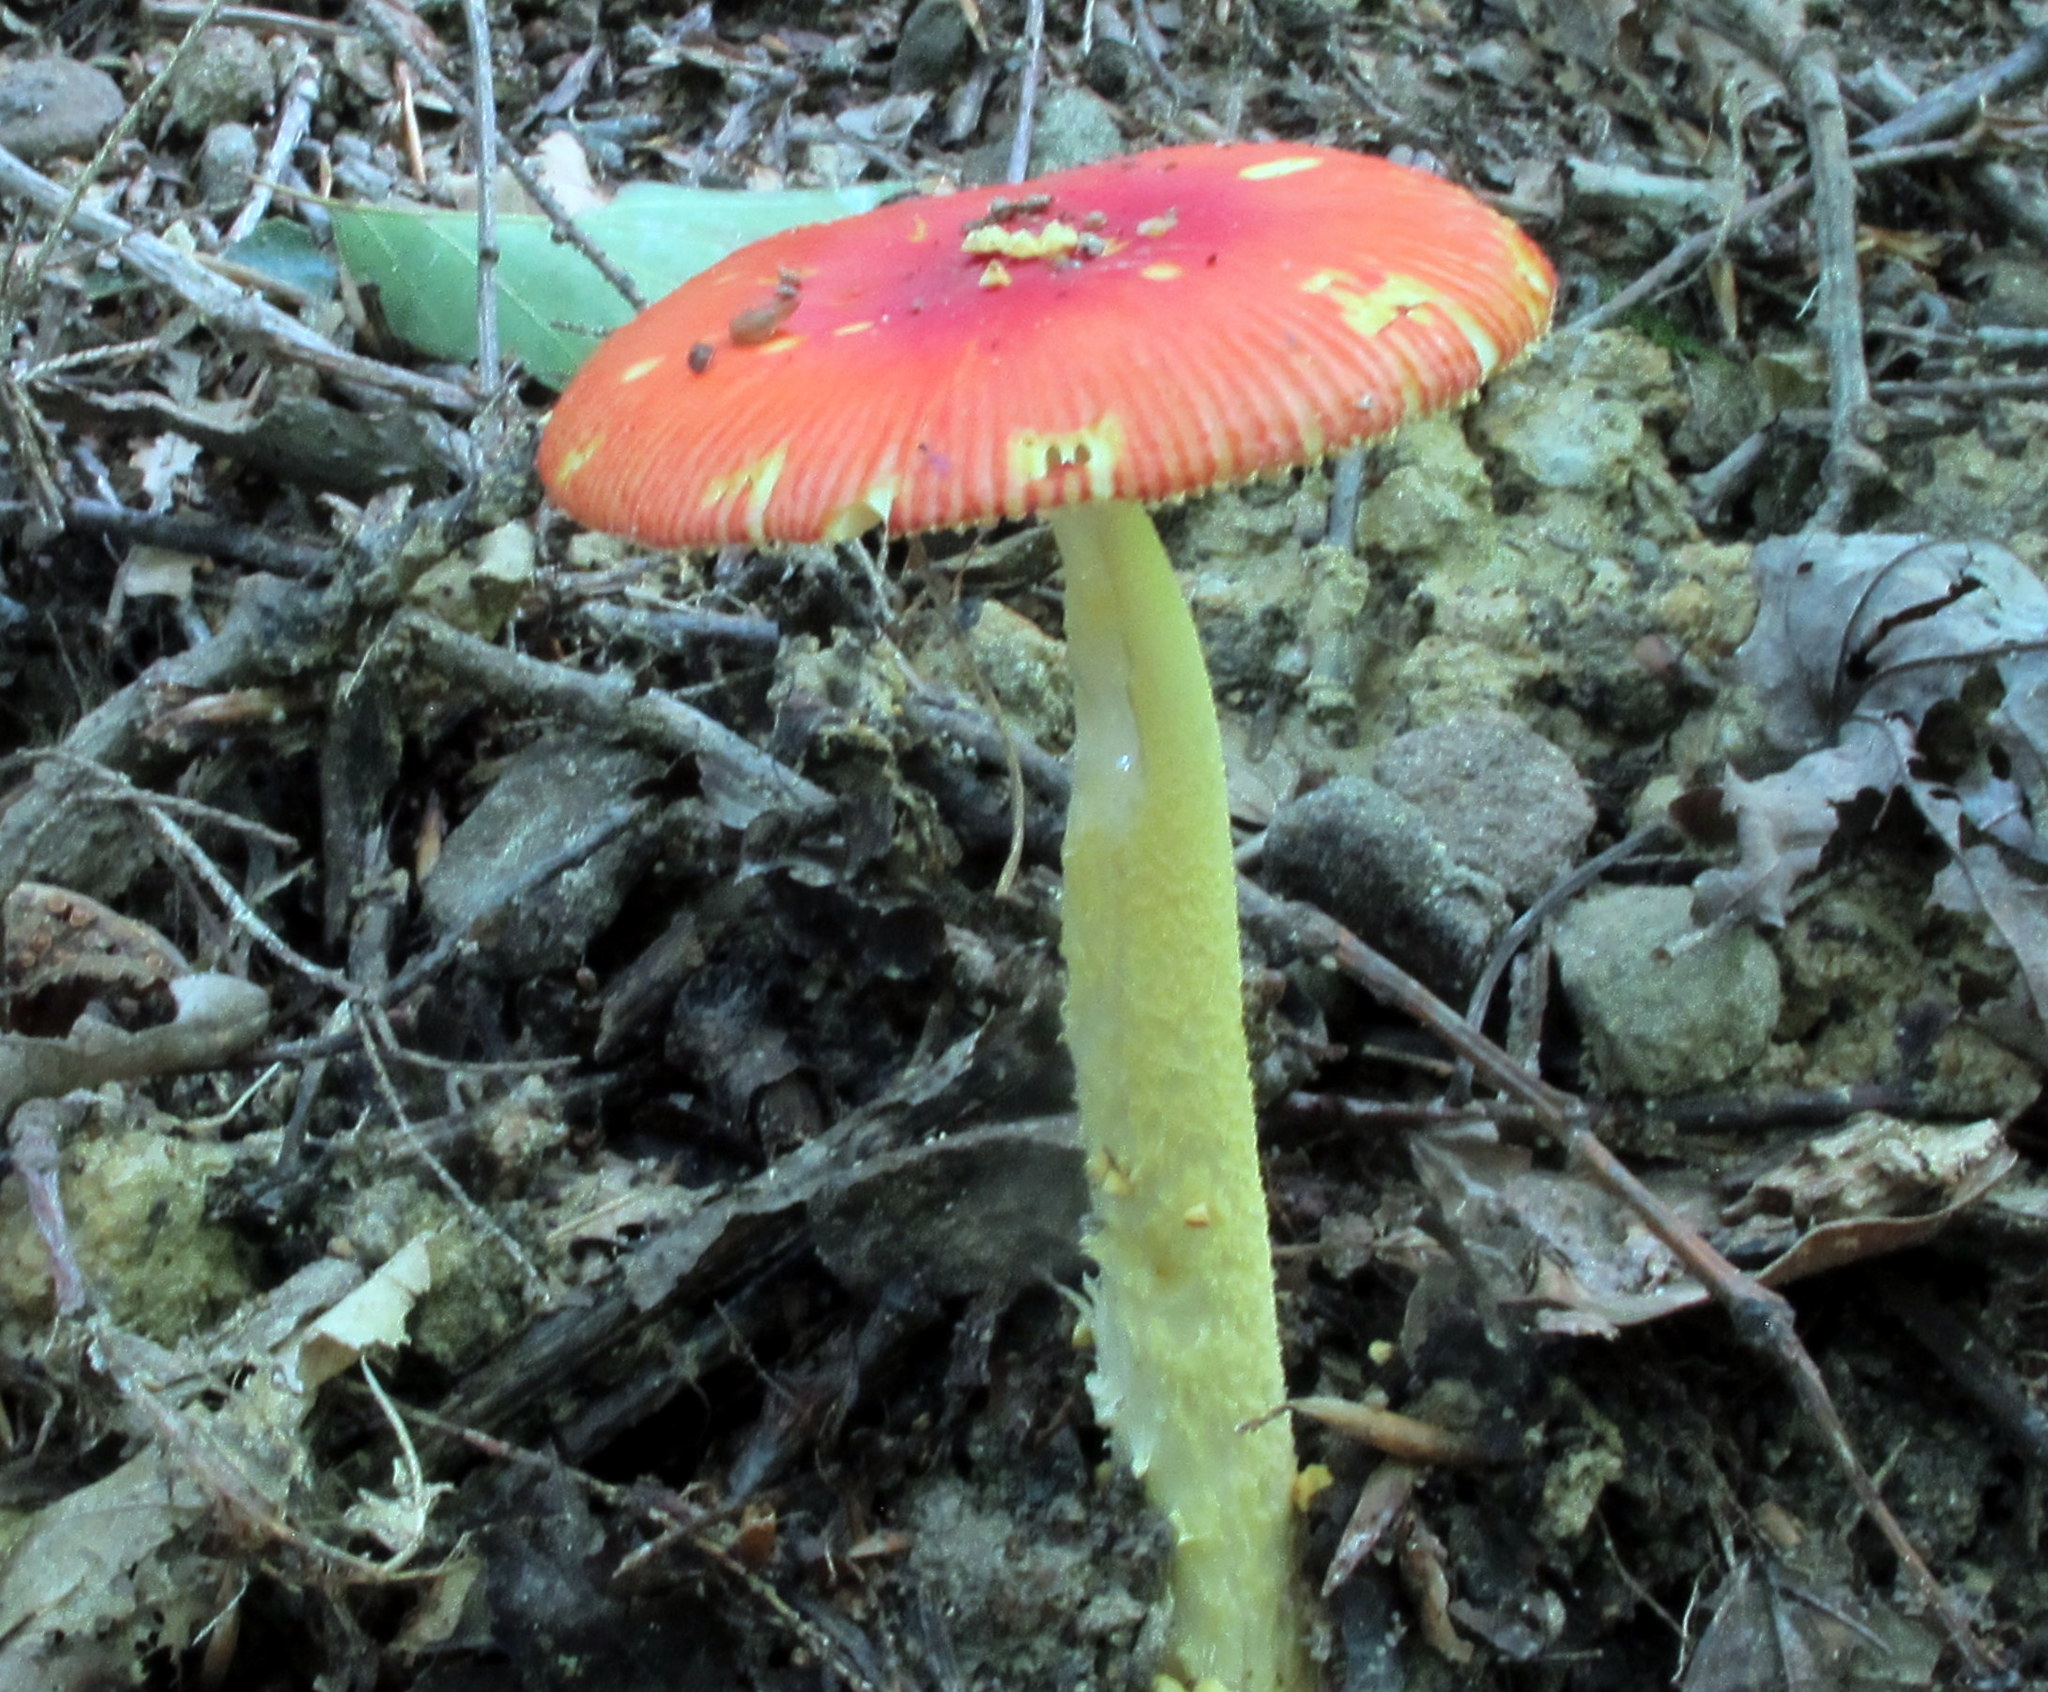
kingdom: Fungi
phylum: Basidiomycota
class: Agaricomycetes
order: Agaricales
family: Amanitaceae
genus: Amanita
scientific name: Amanita parcivolvata
